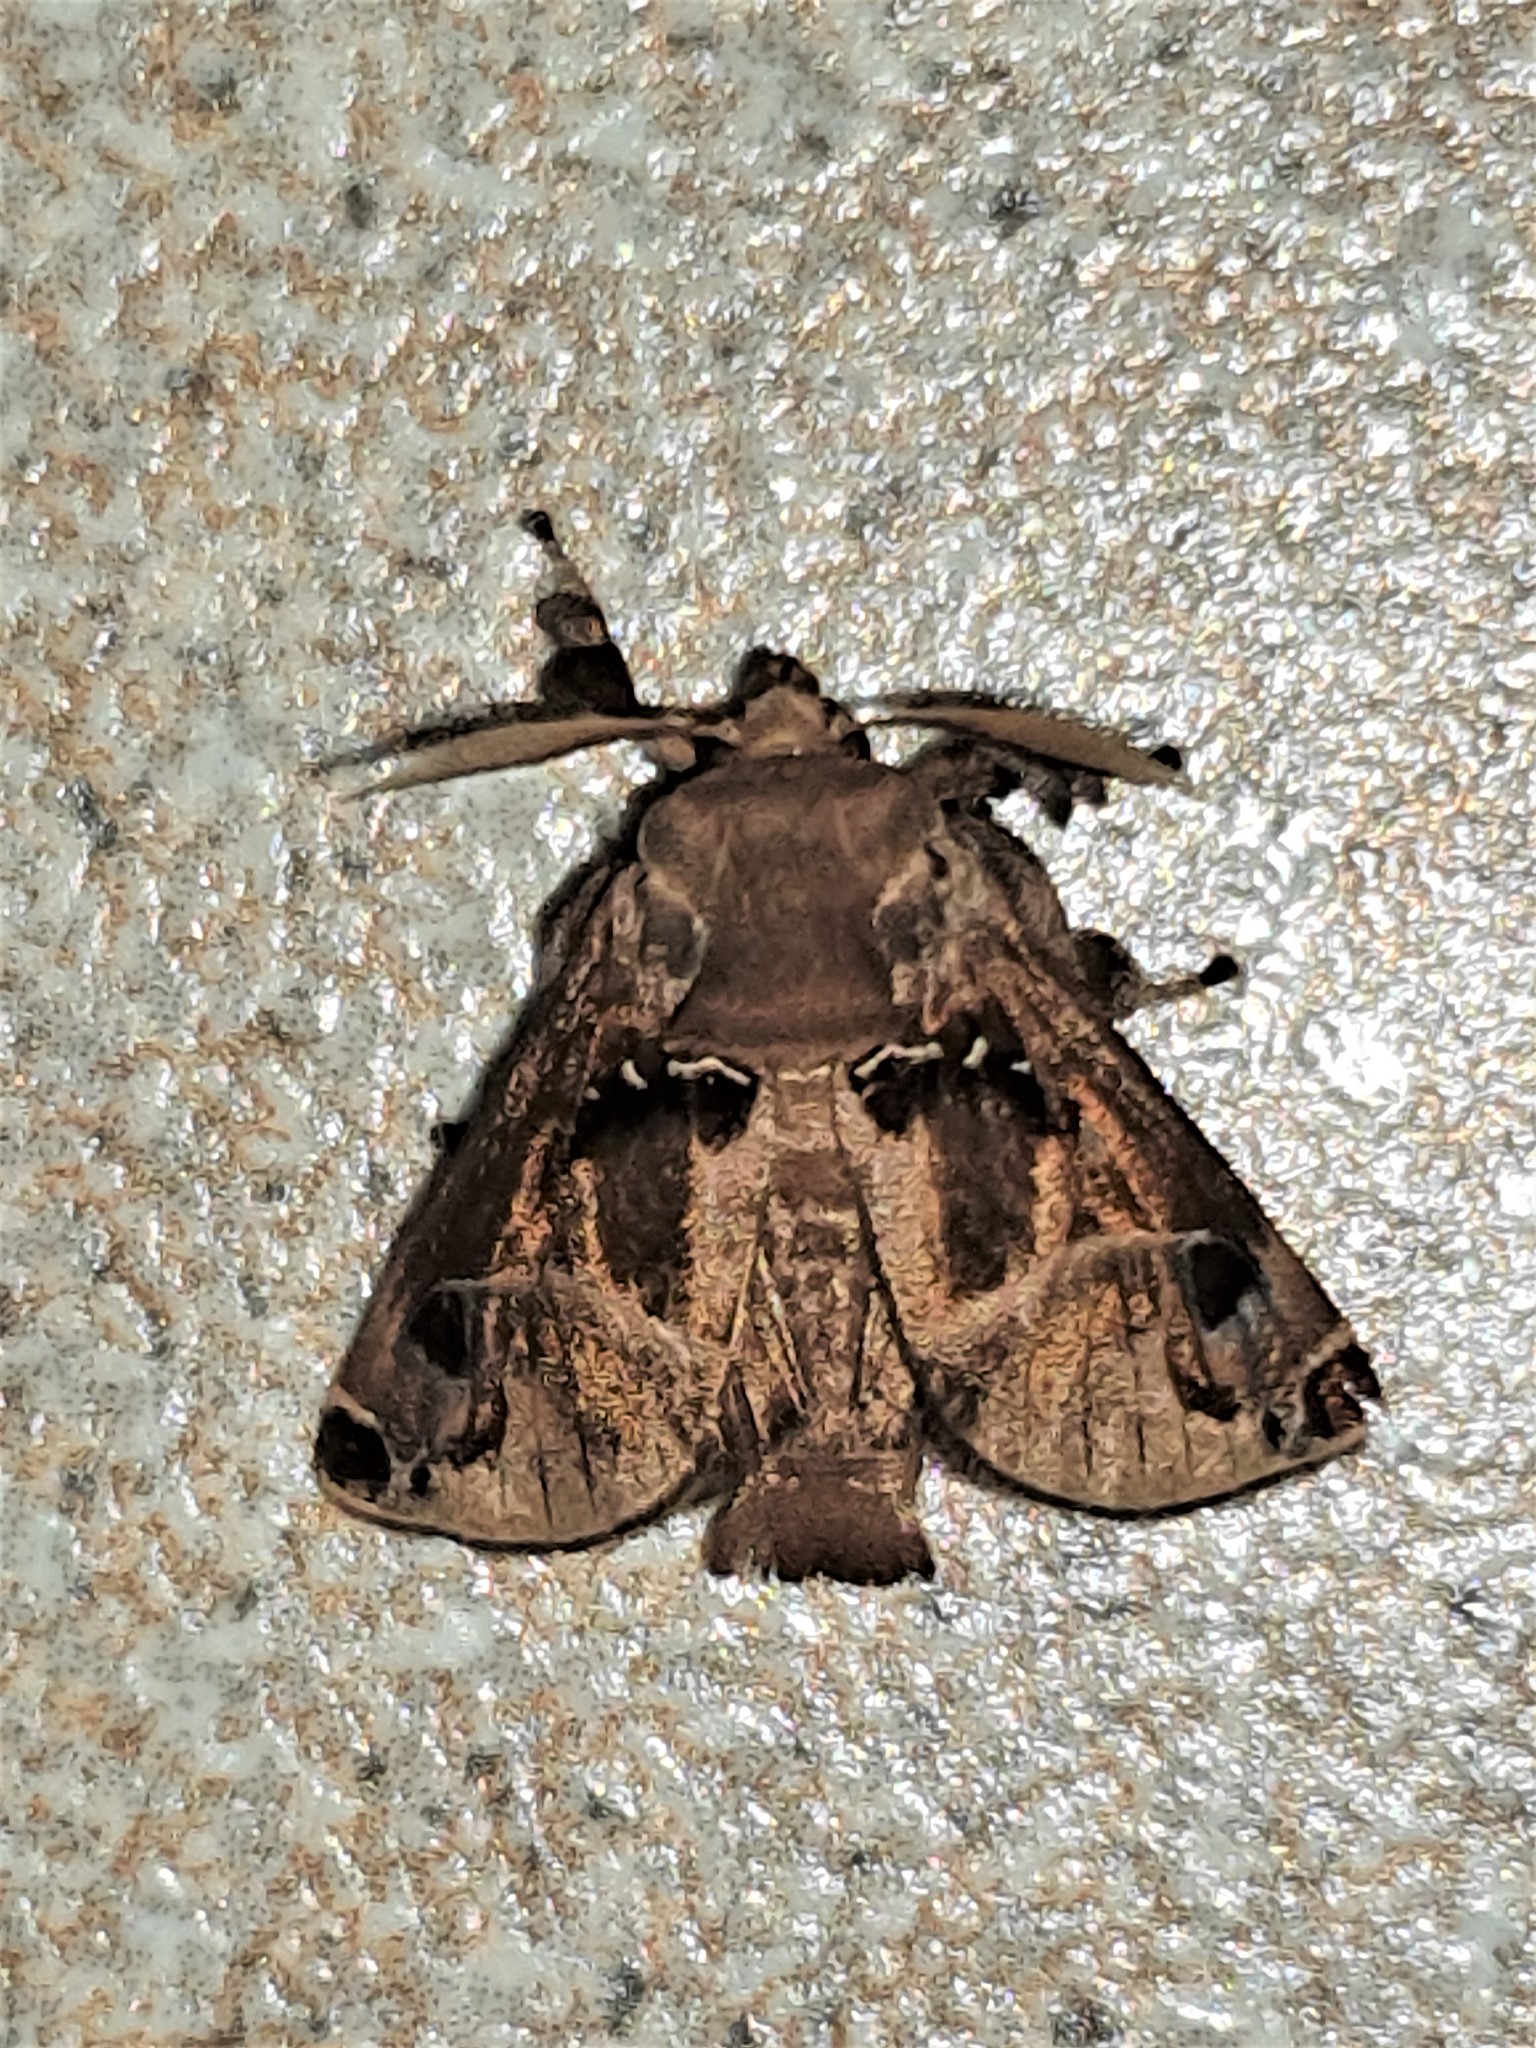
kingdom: Animalia
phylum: Arthropoda
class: Insecta
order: Lepidoptera
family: Limacodidae
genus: Semyra
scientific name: Semyra irena
